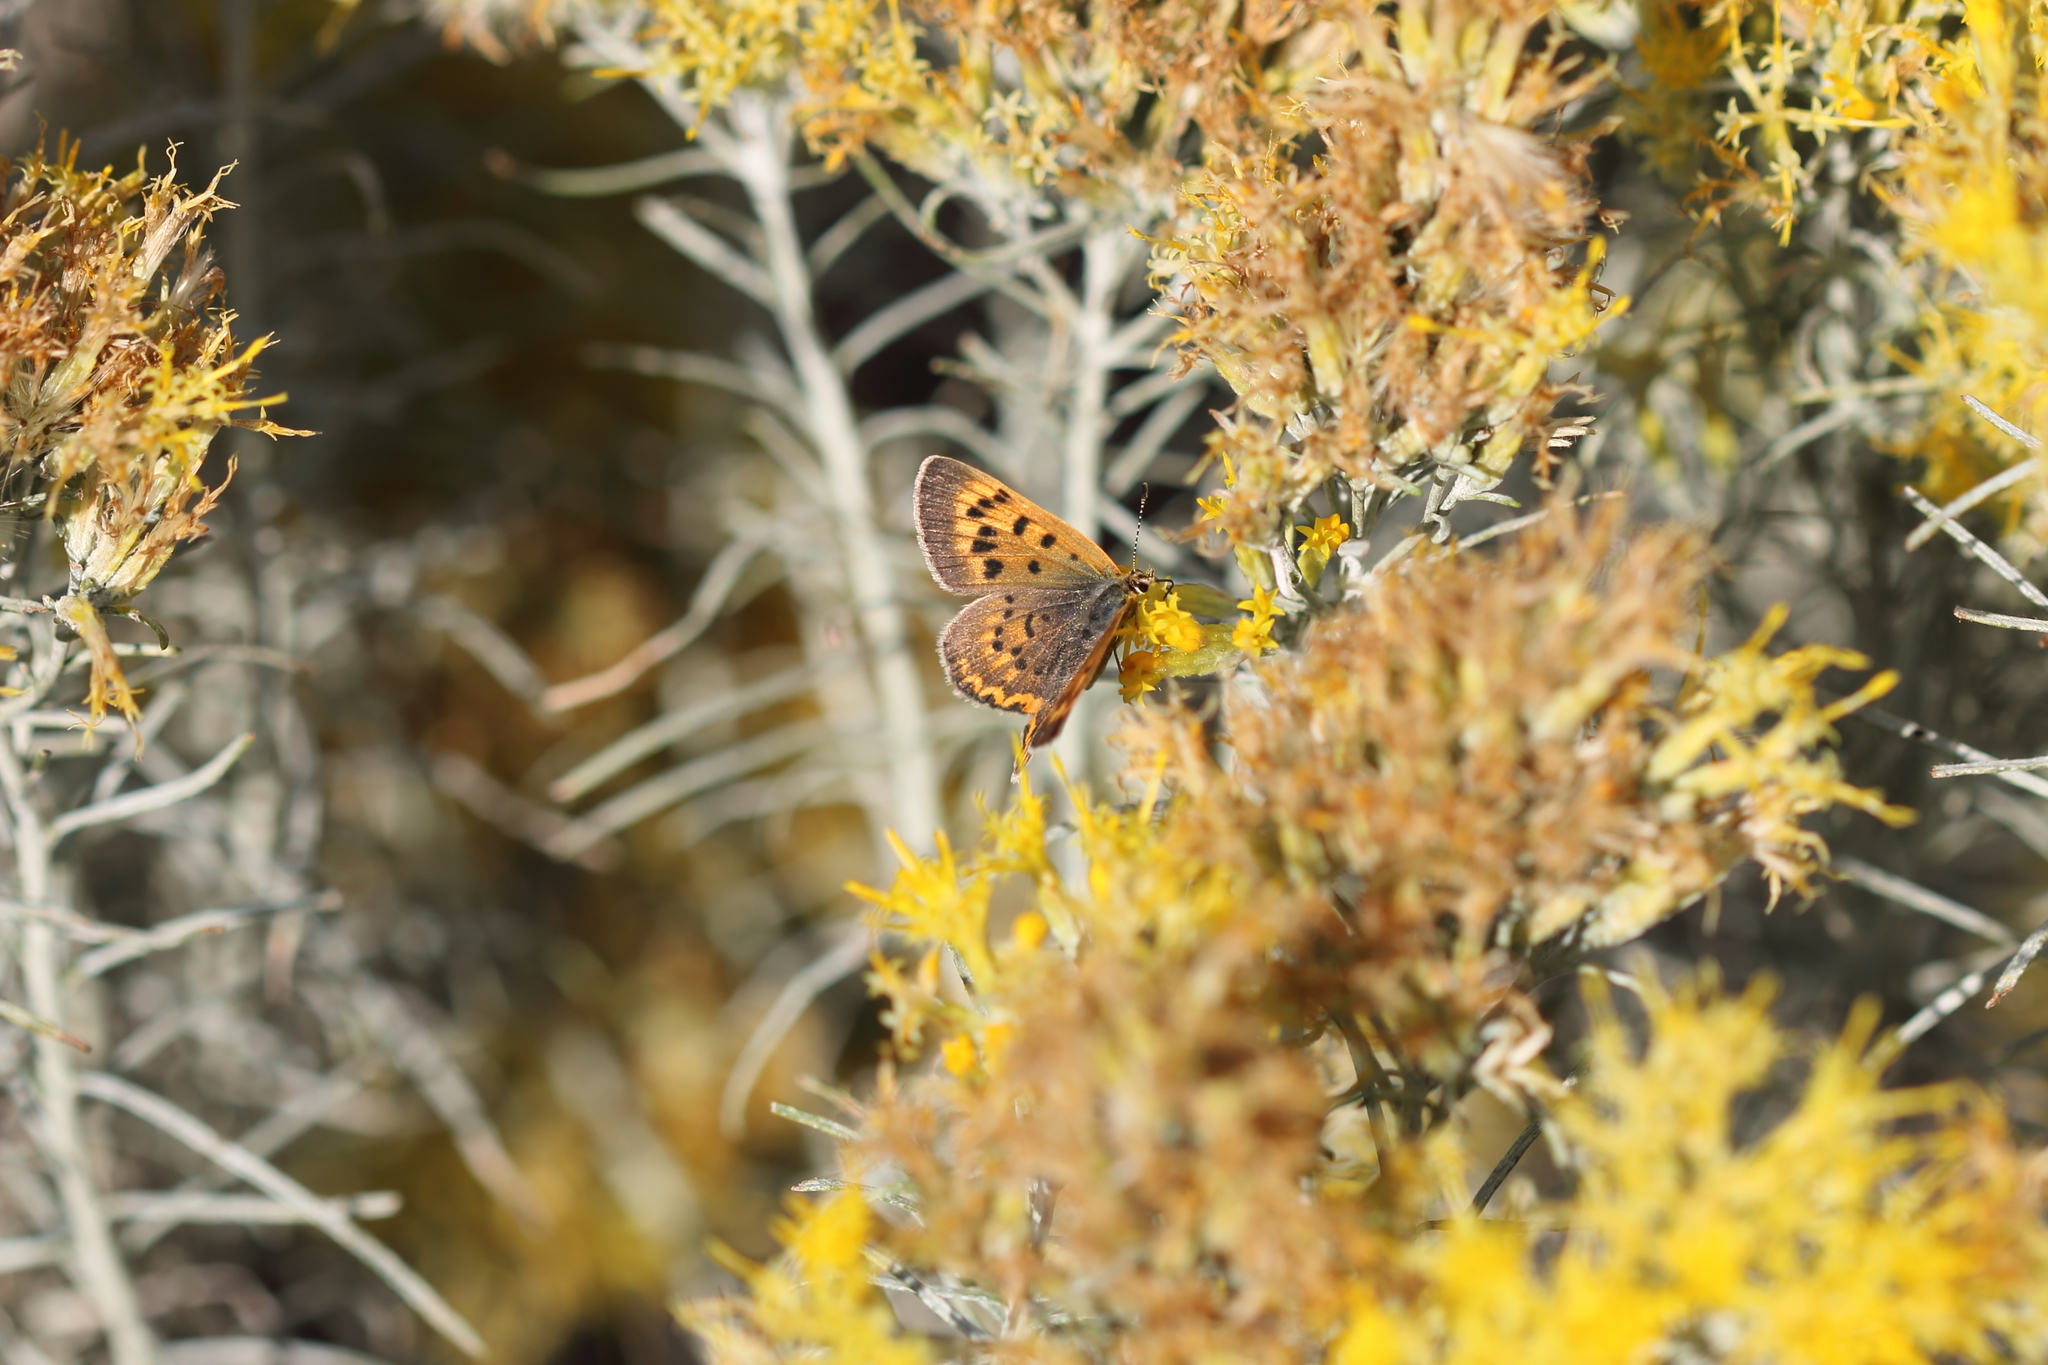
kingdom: Animalia
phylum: Arthropoda
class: Insecta
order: Lepidoptera
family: Lycaenidae
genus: Tharsalea
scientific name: Tharsalea helloides
